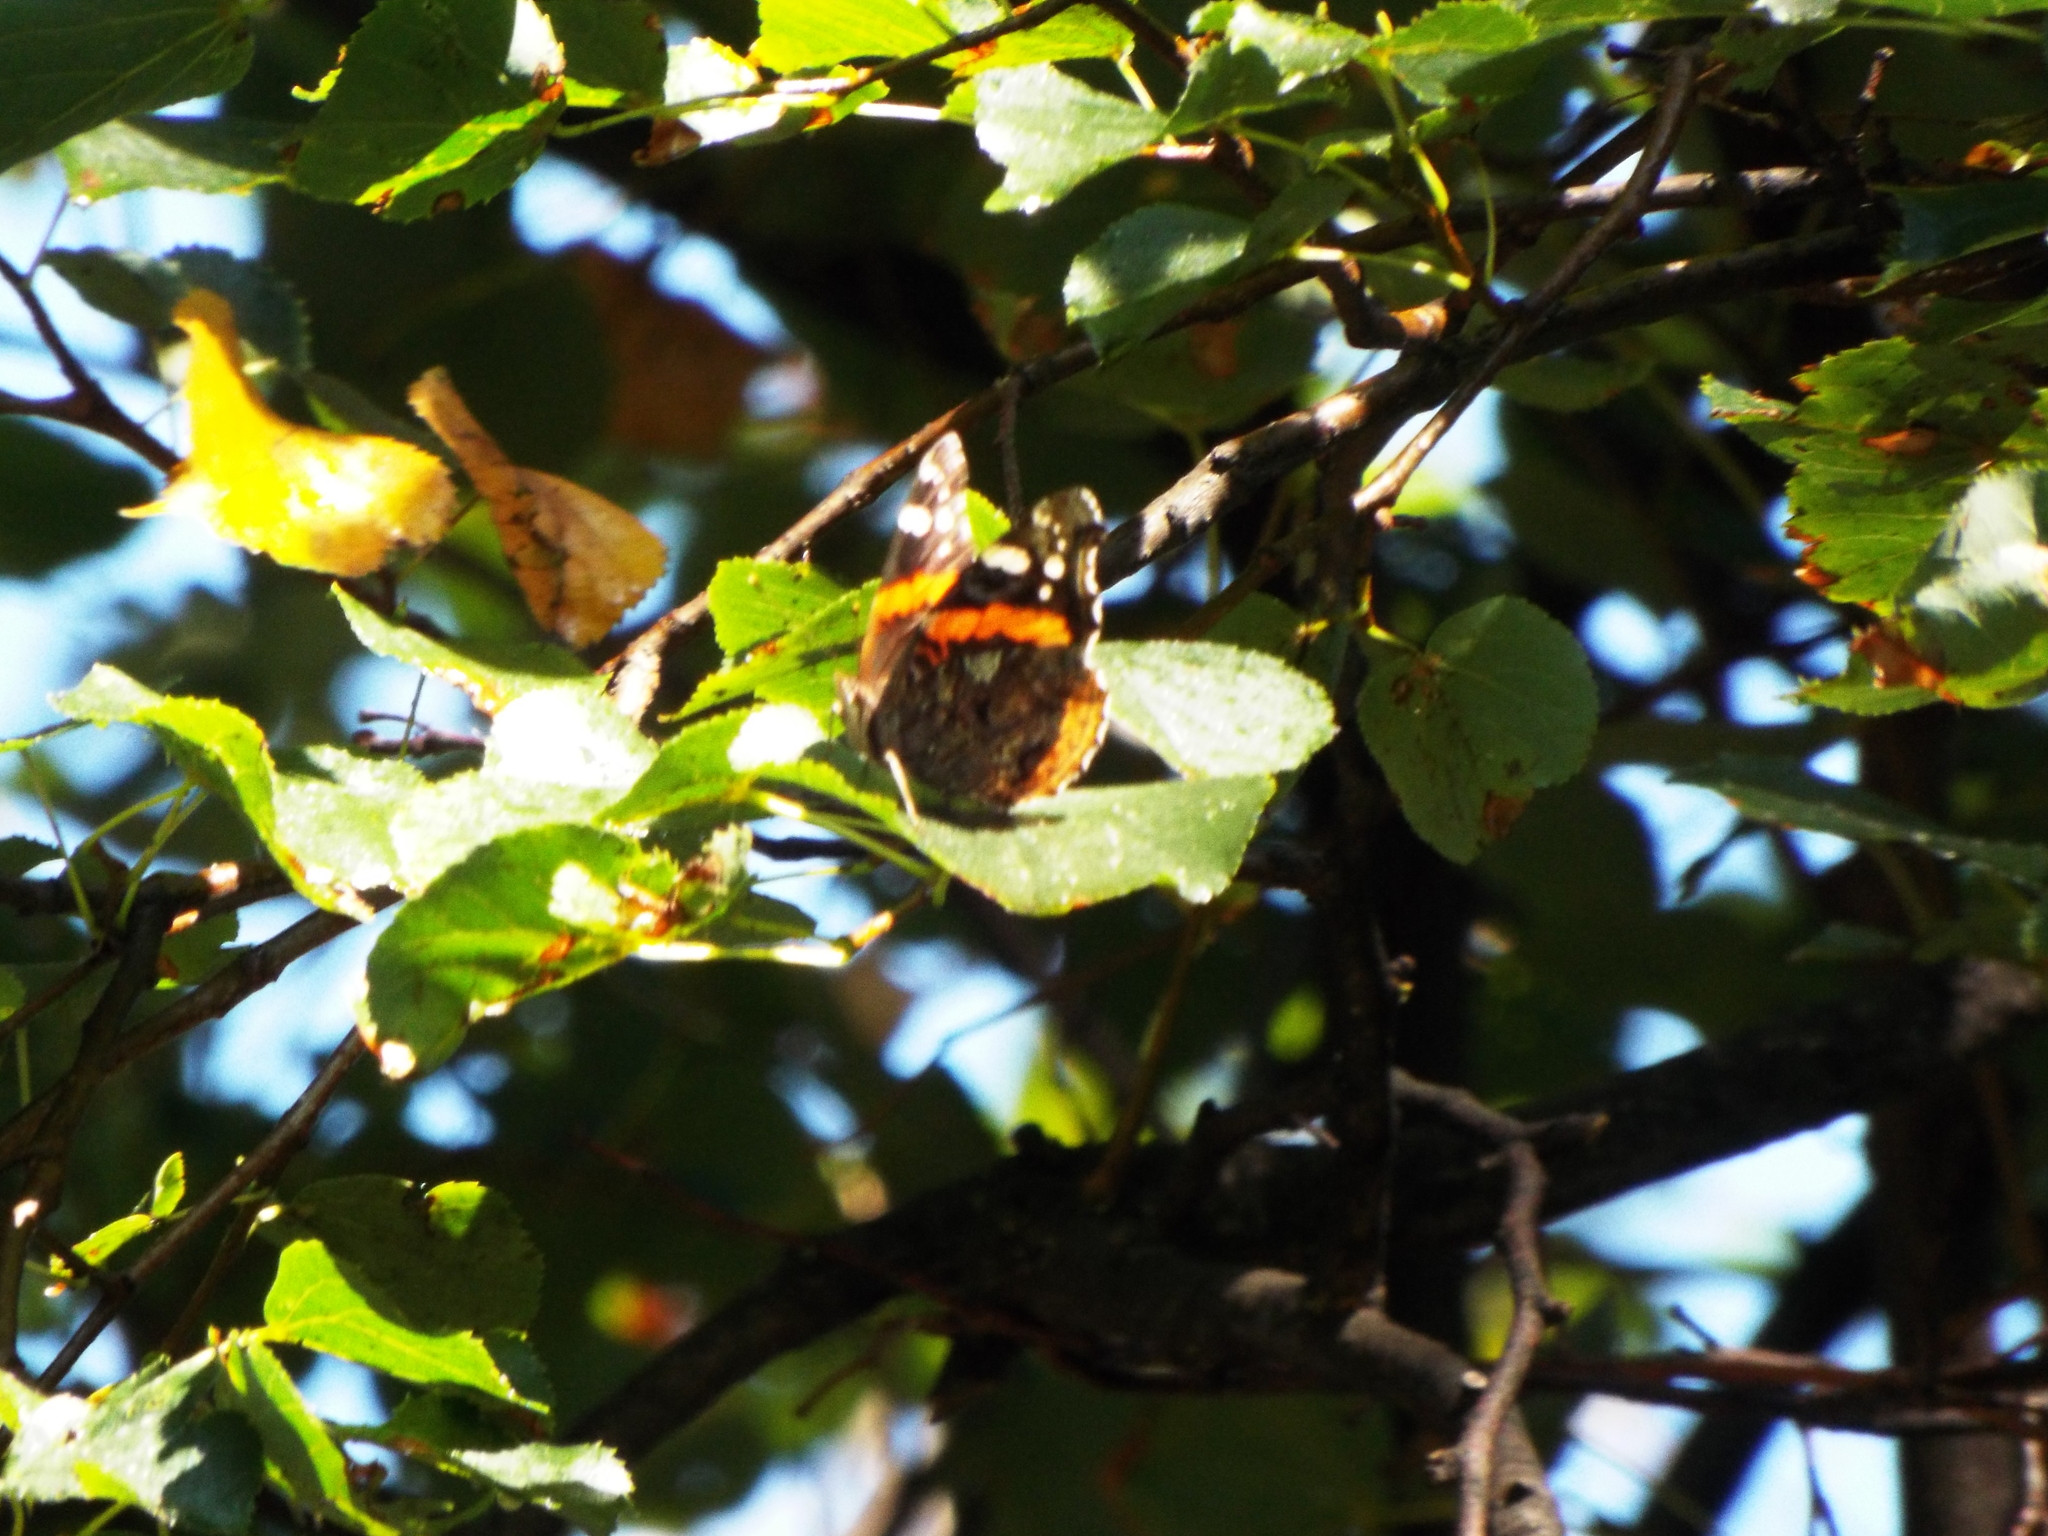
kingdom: Animalia
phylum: Arthropoda
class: Insecta
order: Lepidoptera
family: Nymphalidae
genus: Vanessa
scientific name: Vanessa atalanta
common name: Red admiral
